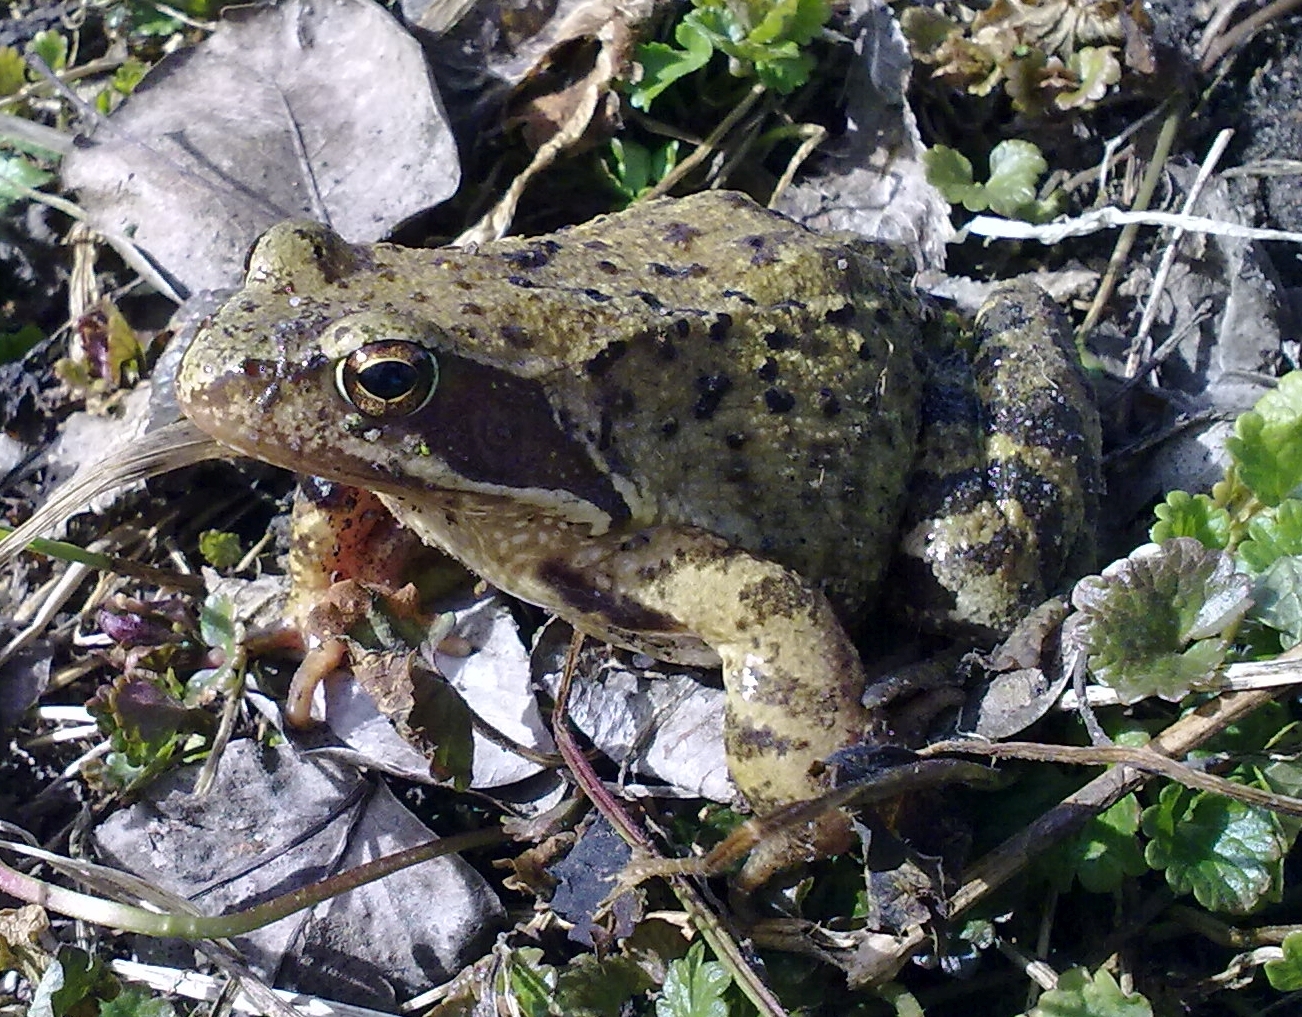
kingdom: Animalia
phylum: Chordata
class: Amphibia
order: Anura
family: Ranidae
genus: Rana
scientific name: Rana temporaria
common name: Common frog
